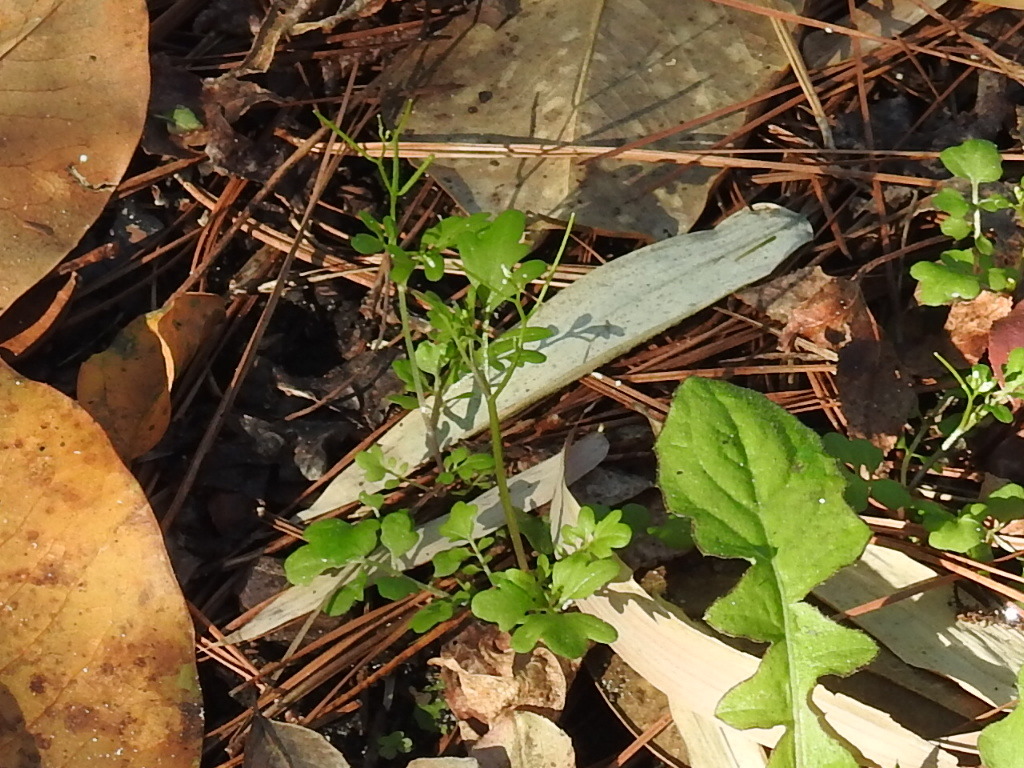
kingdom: Plantae
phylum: Tracheophyta
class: Magnoliopsida
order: Brassicales
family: Brassicaceae
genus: Cardamine
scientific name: Cardamine occulta
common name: Asian wavy bittercress
